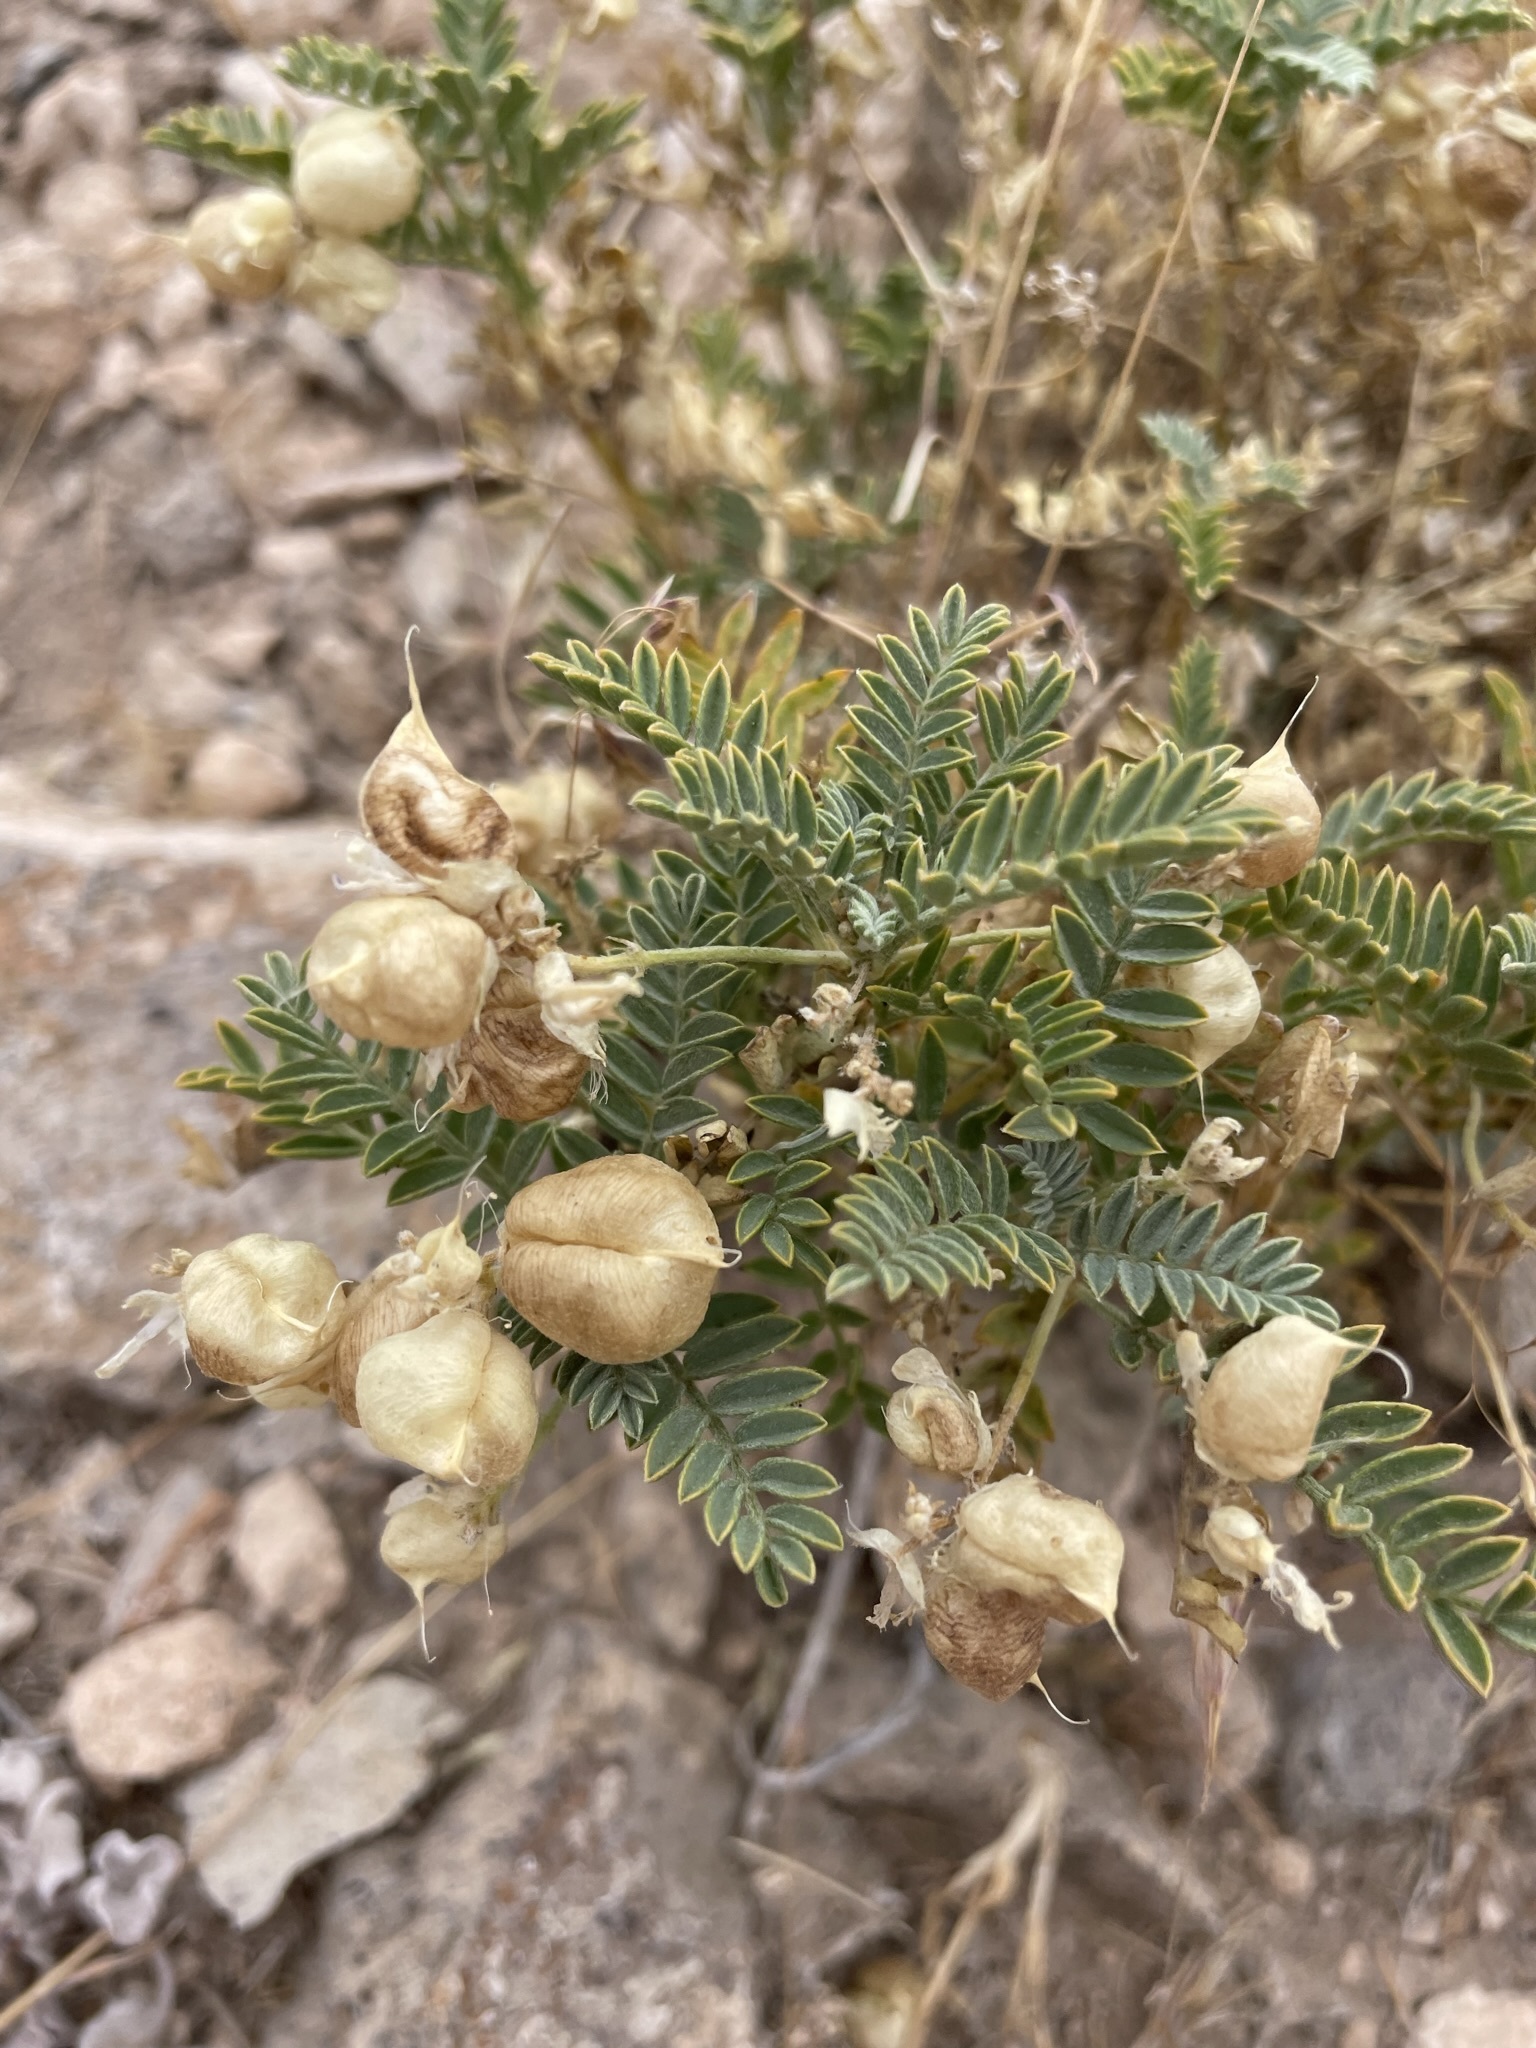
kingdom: Plantae
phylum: Tracheophyta
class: Magnoliopsida
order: Fabales
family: Fabaceae
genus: Astragalus
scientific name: Astragalus lentiginosus
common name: Freckled milkvetch
